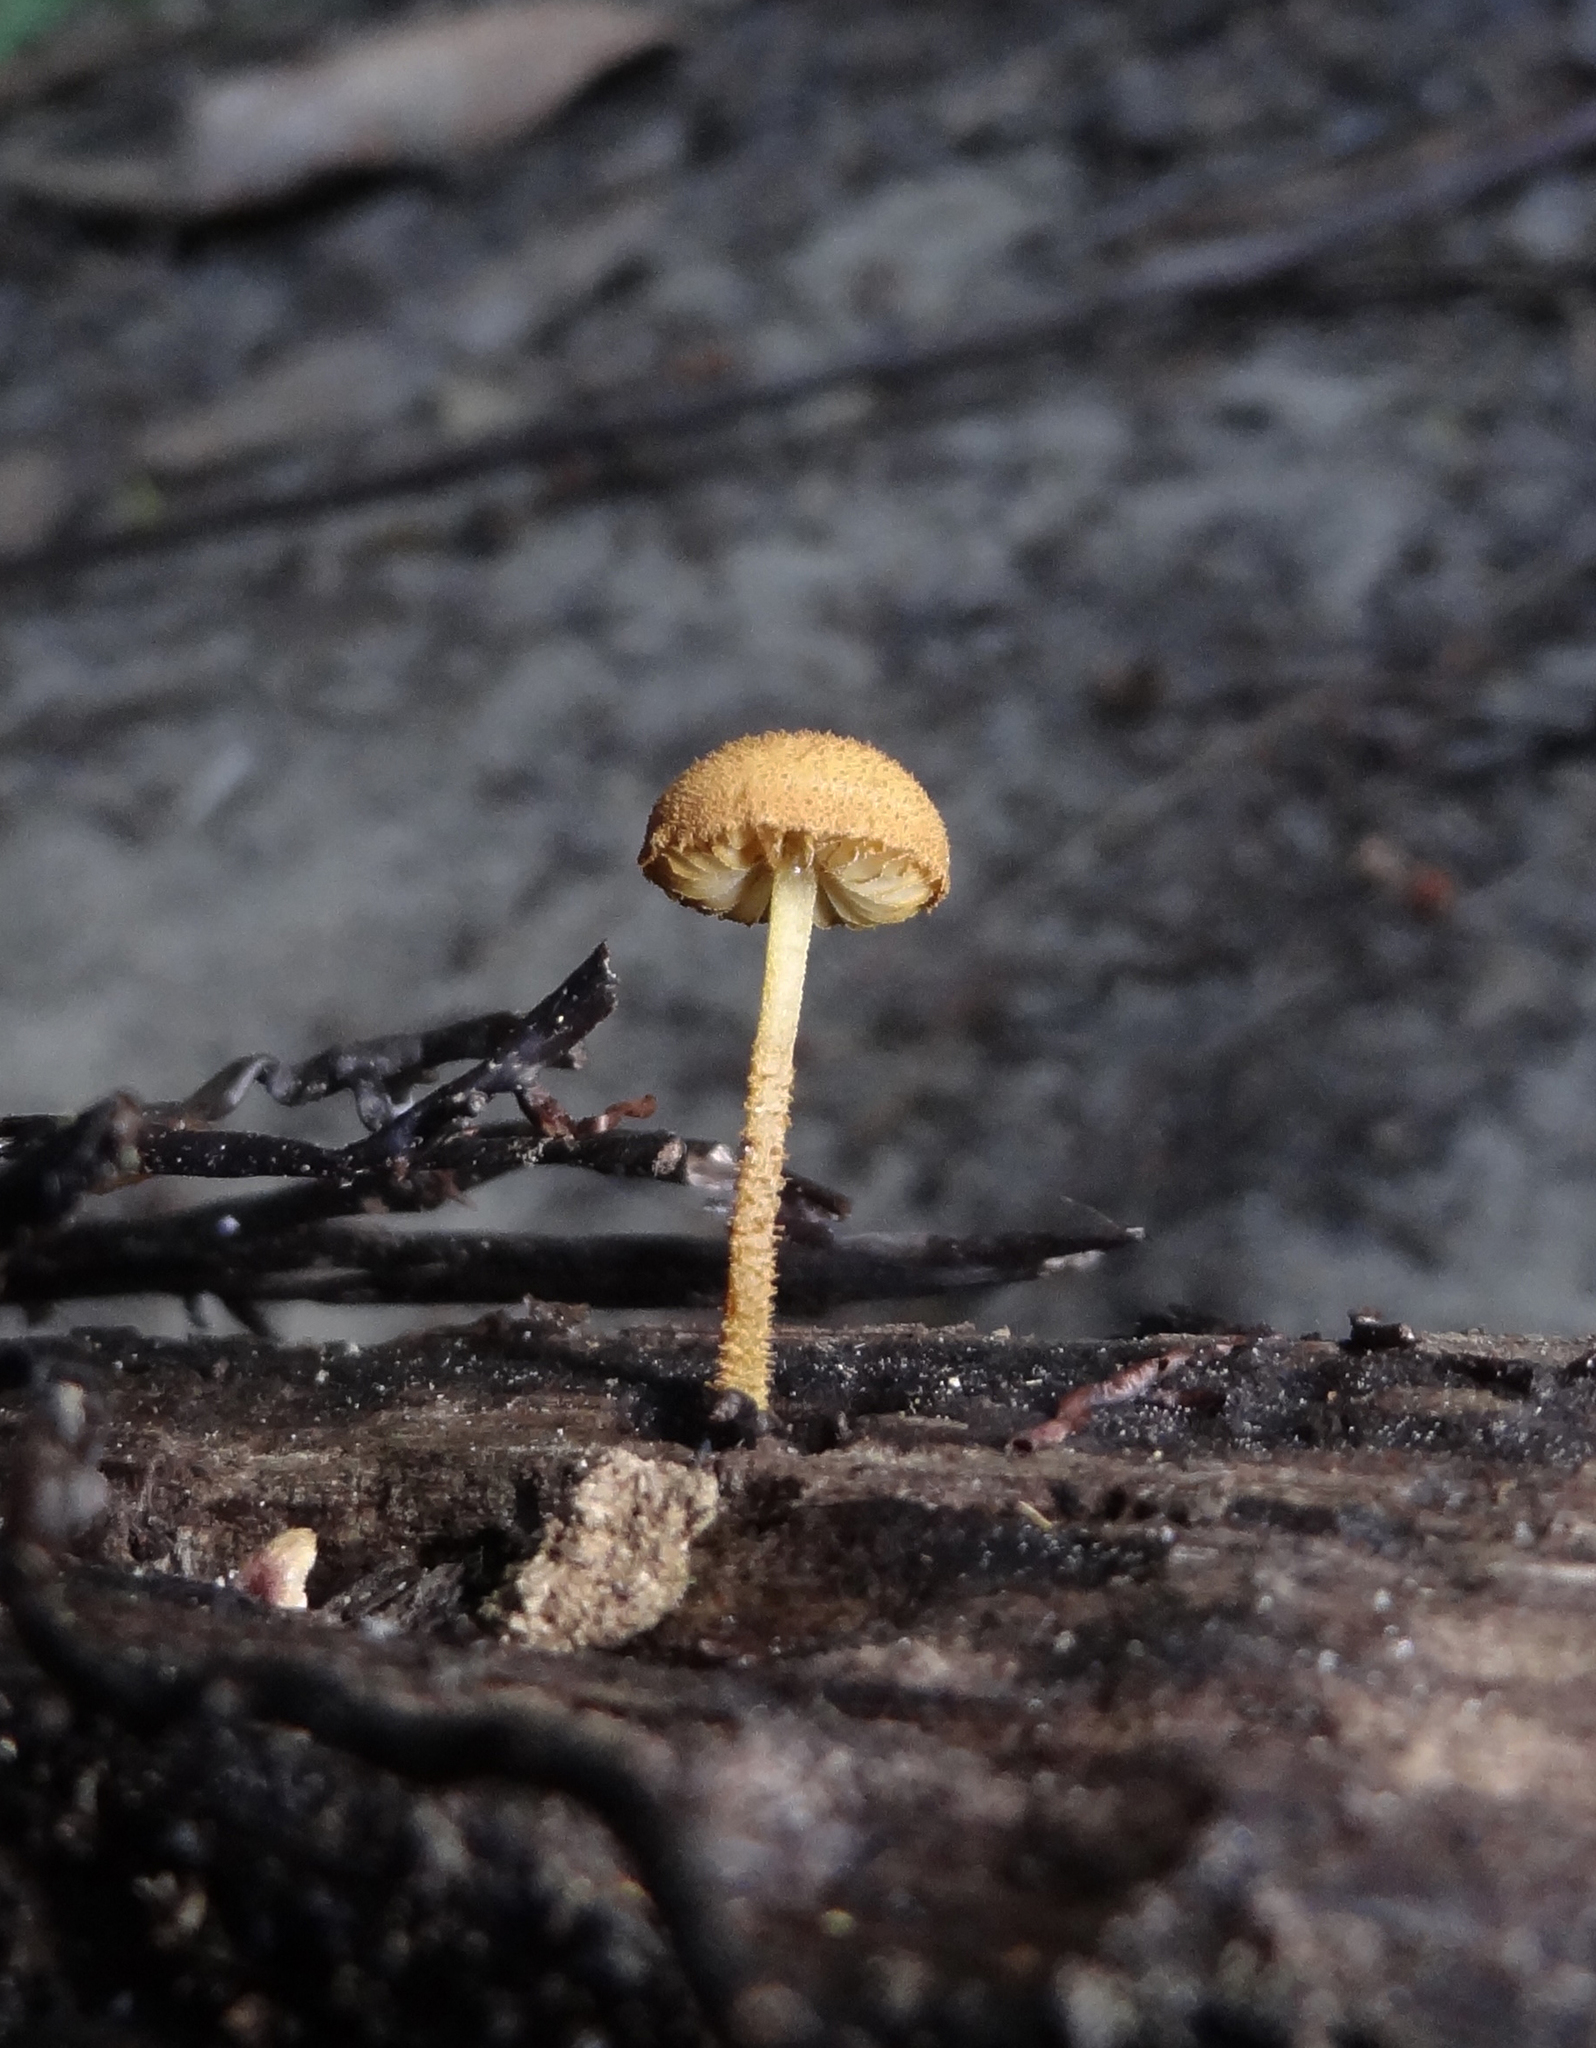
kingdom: Fungi
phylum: Basidiomycota
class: Agaricomycetes
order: Agaricales
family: Tubariaceae
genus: Flammulaster
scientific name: Flammulaster erinaceellus
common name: Powder-scale pholiota
